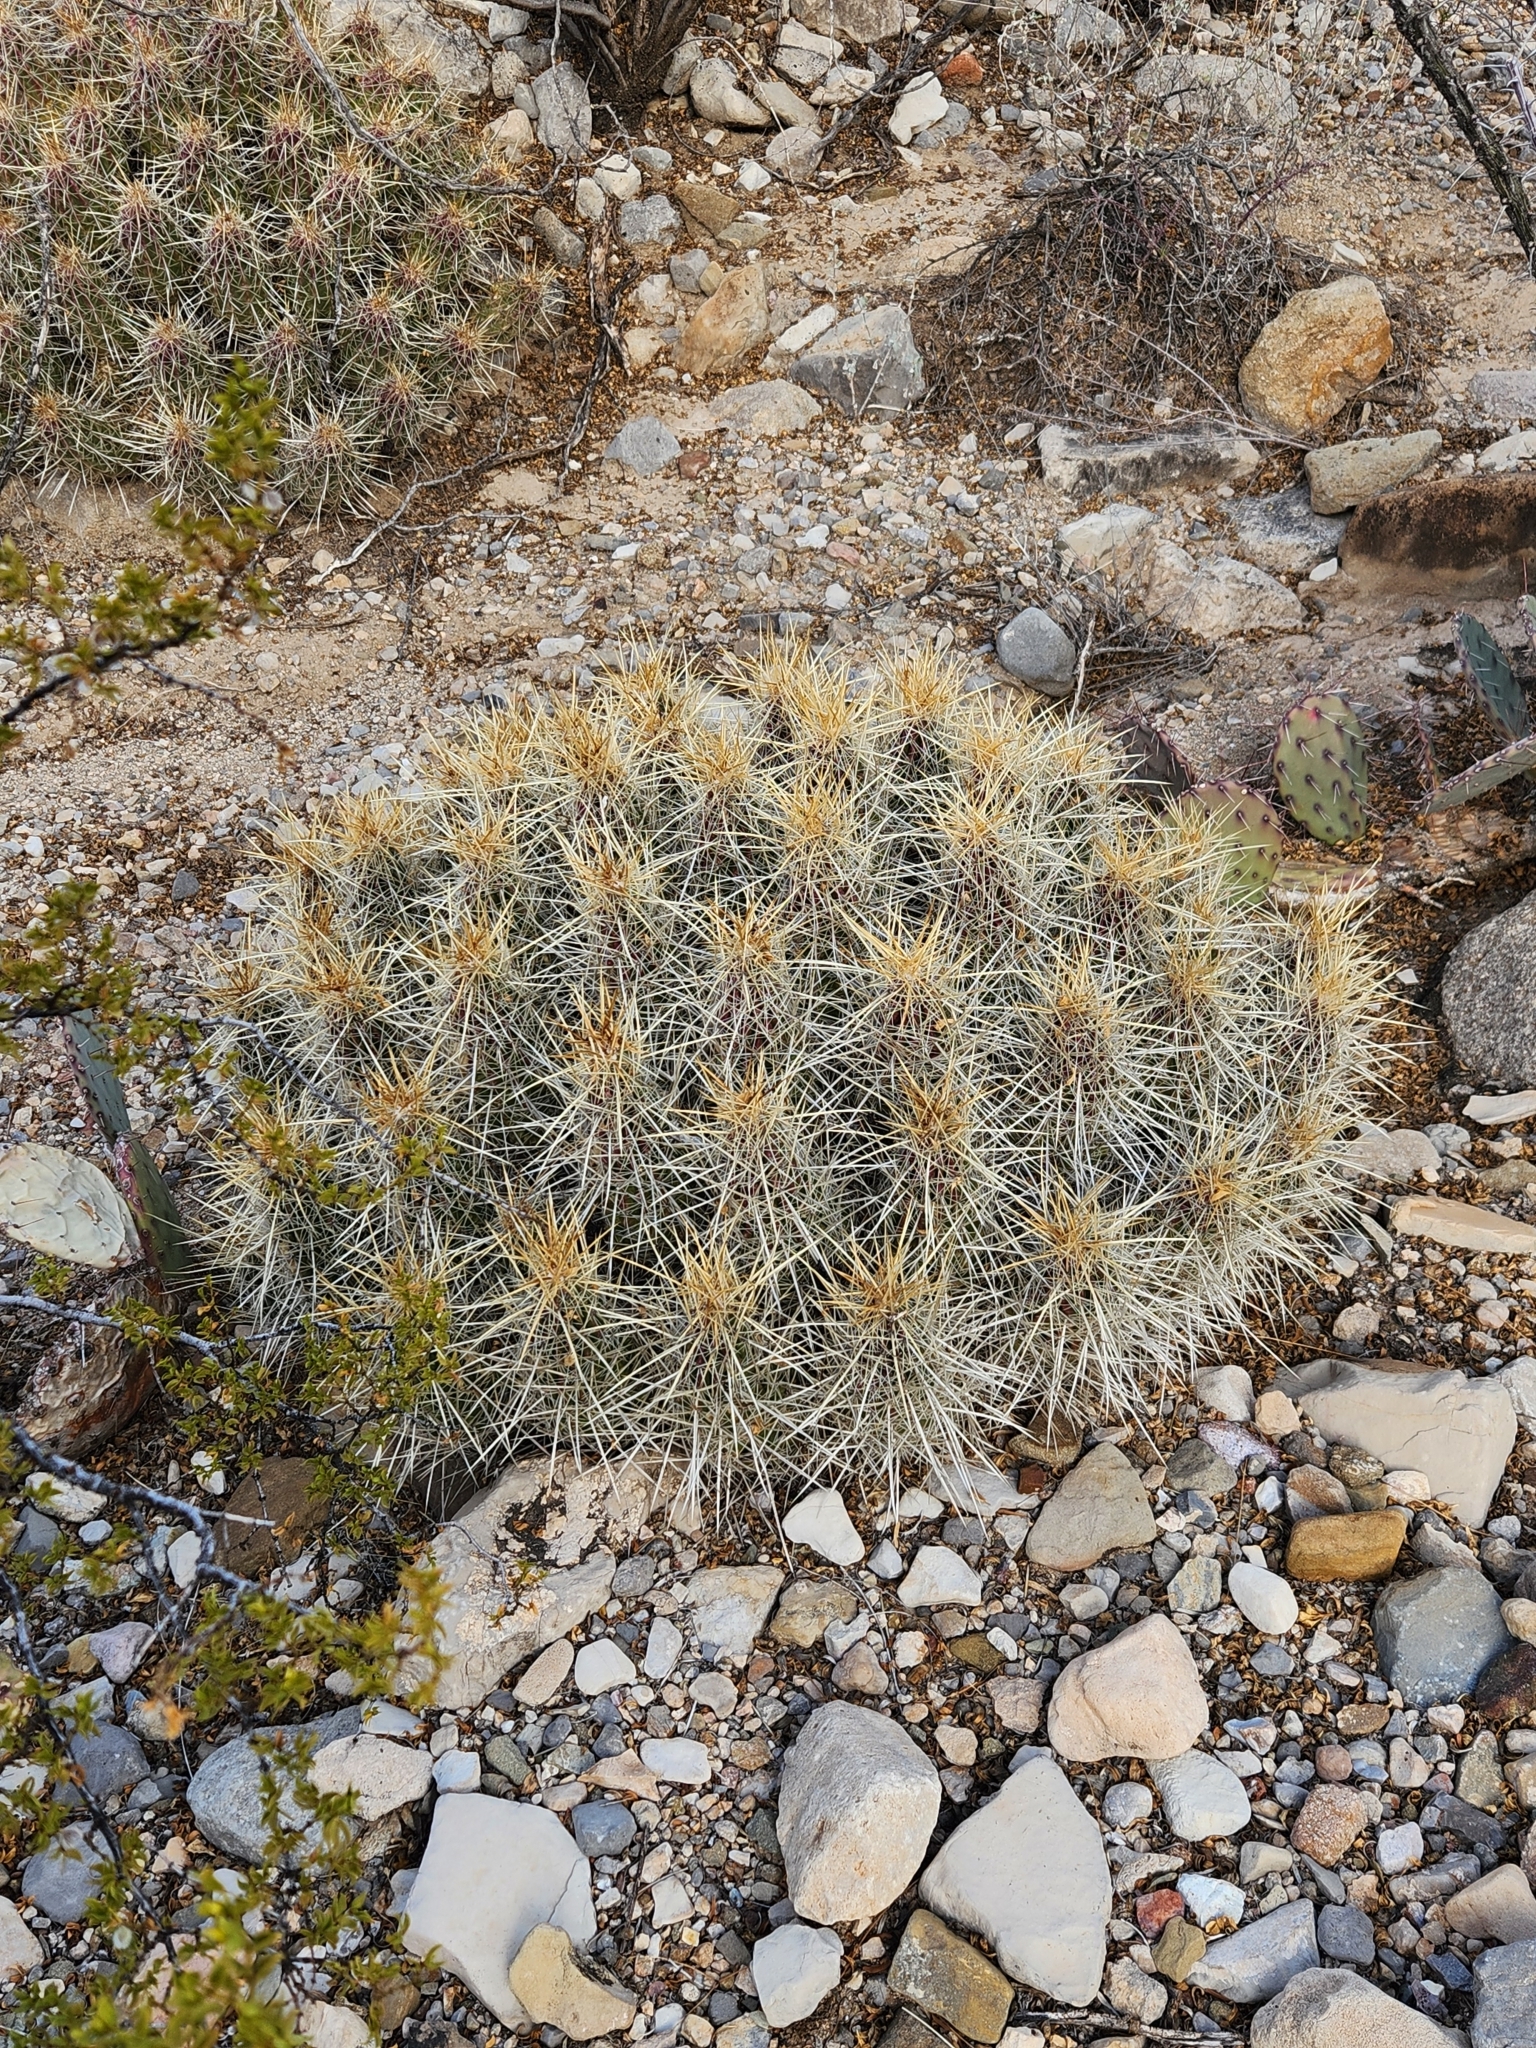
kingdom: Plantae
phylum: Tracheophyta
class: Magnoliopsida
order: Caryophyllales
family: Cactaceae
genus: Echinocereus
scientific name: Echinocereus stramineus
